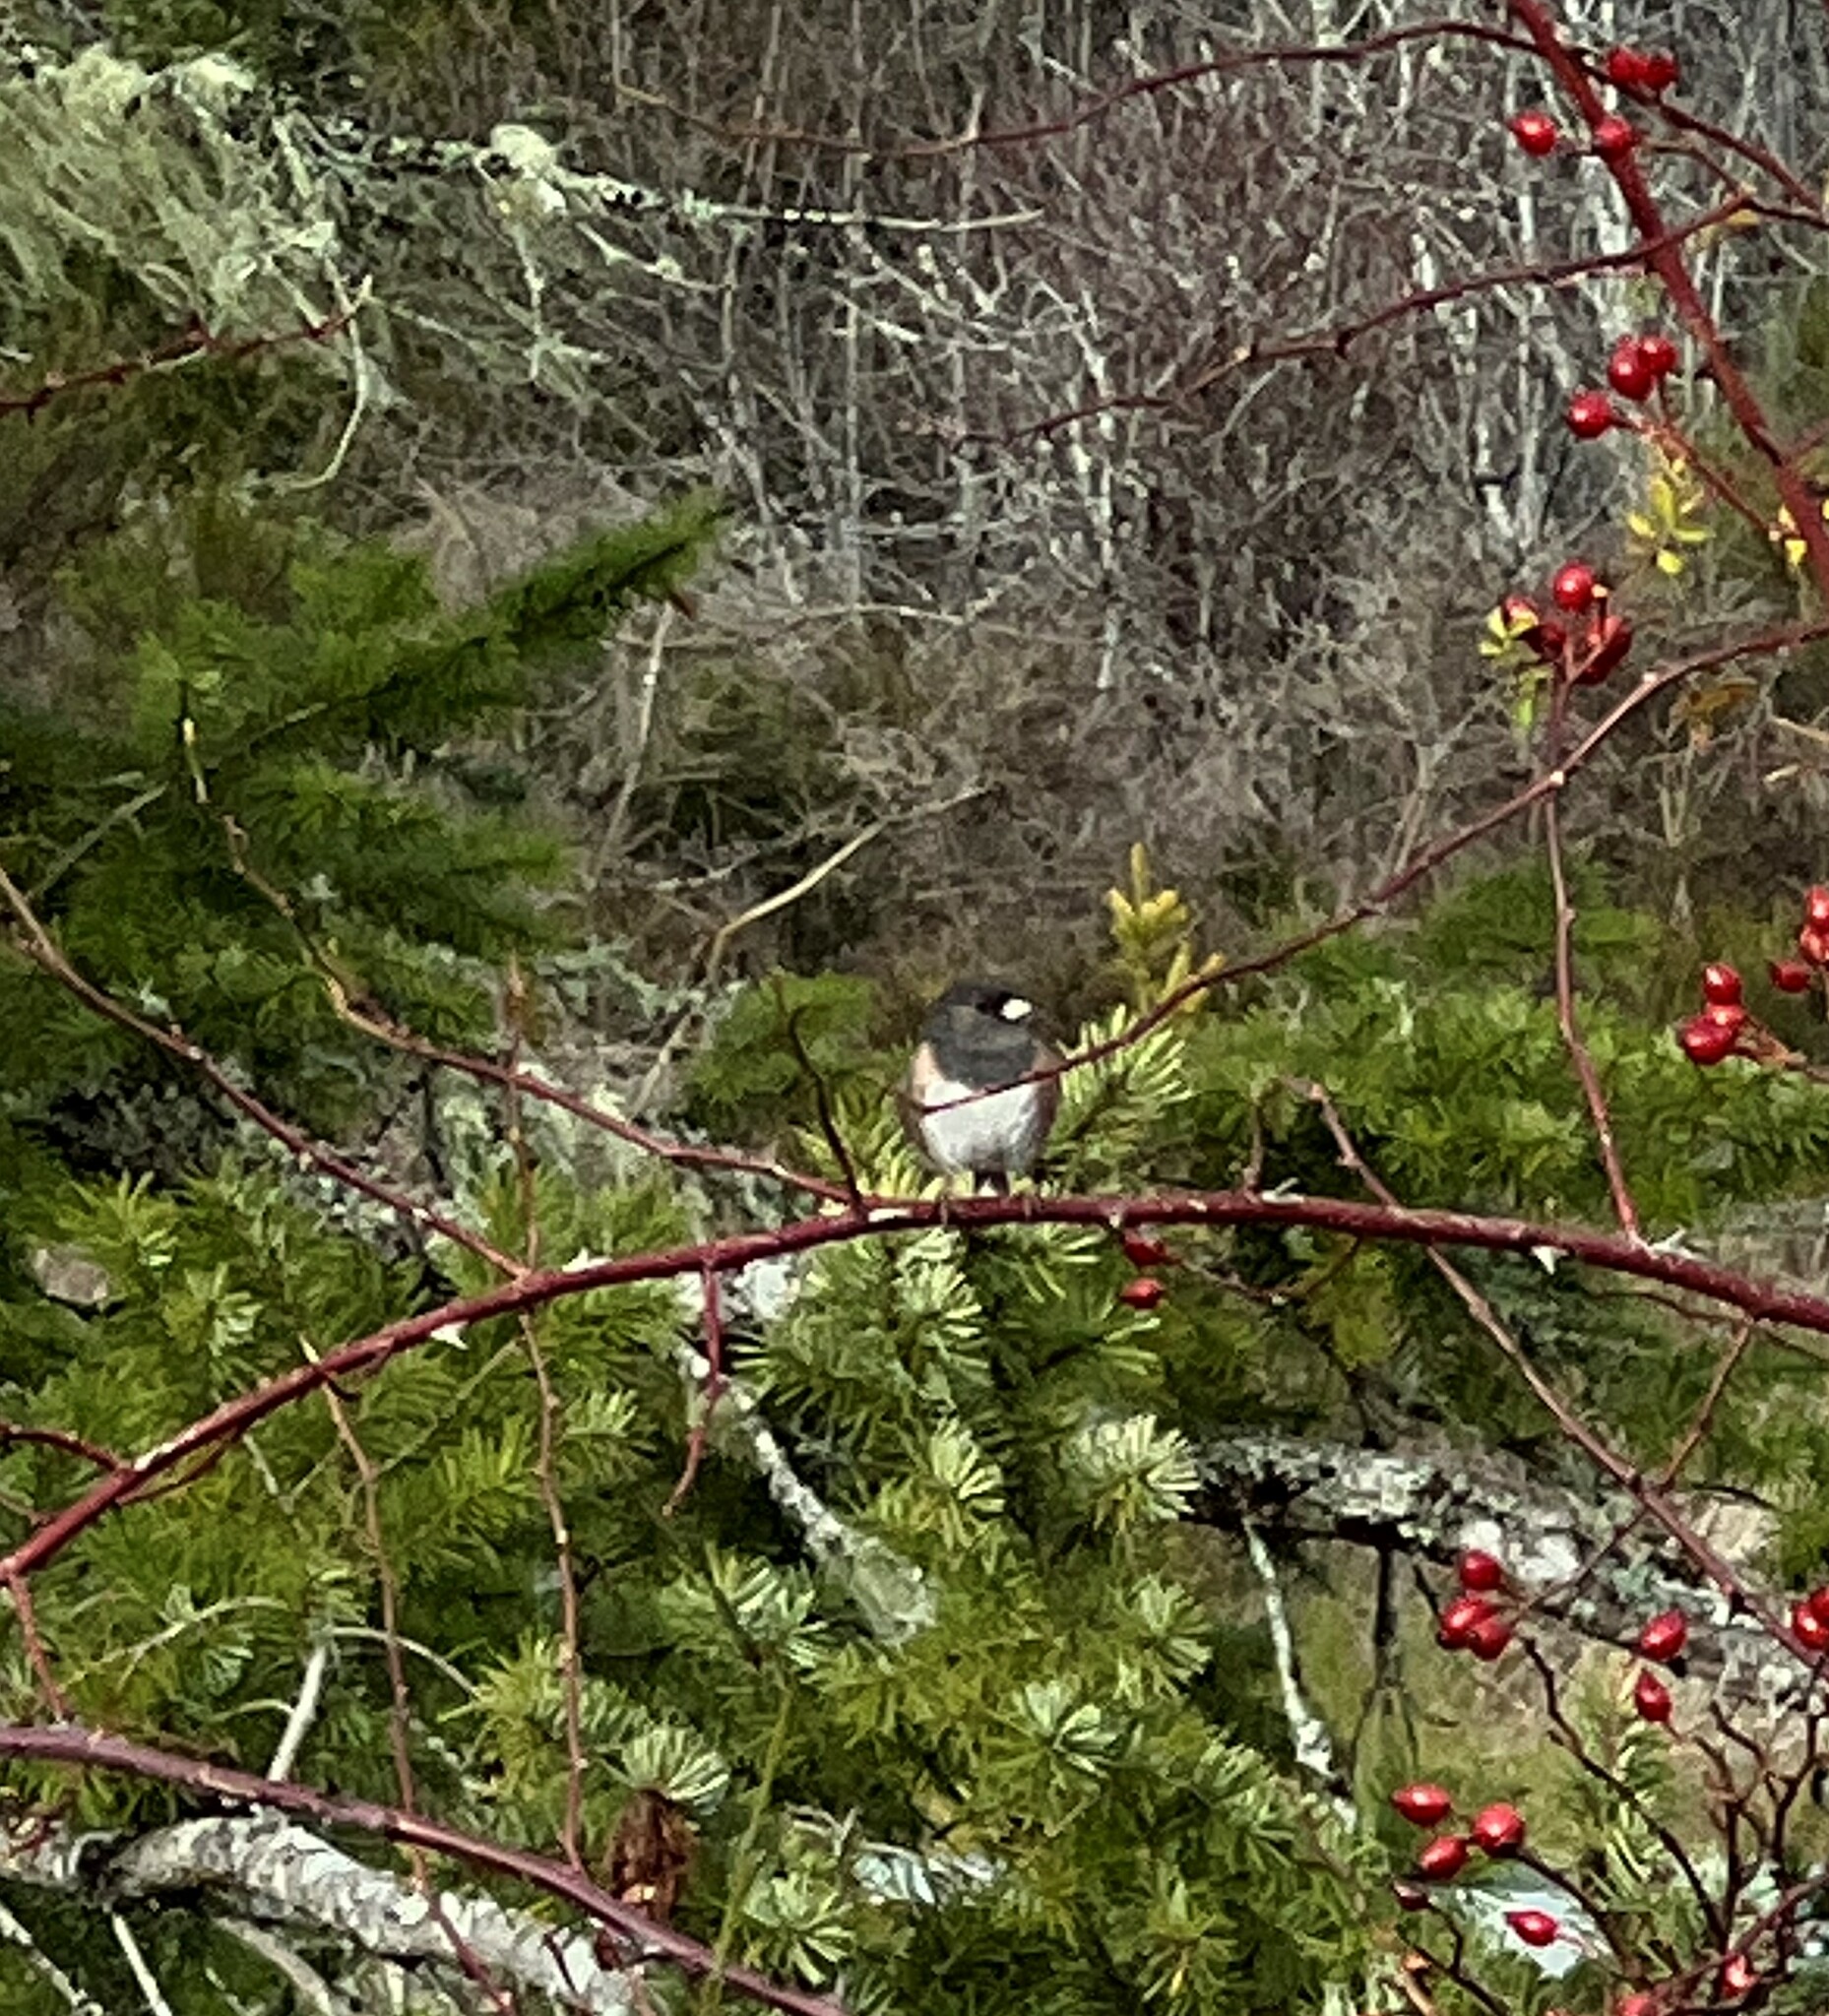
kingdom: Animalia
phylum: Chordata
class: Aves
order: Passeriformes
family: Passerellidae
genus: Junco
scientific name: Junco hyemalis
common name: Dark-eyed junco
